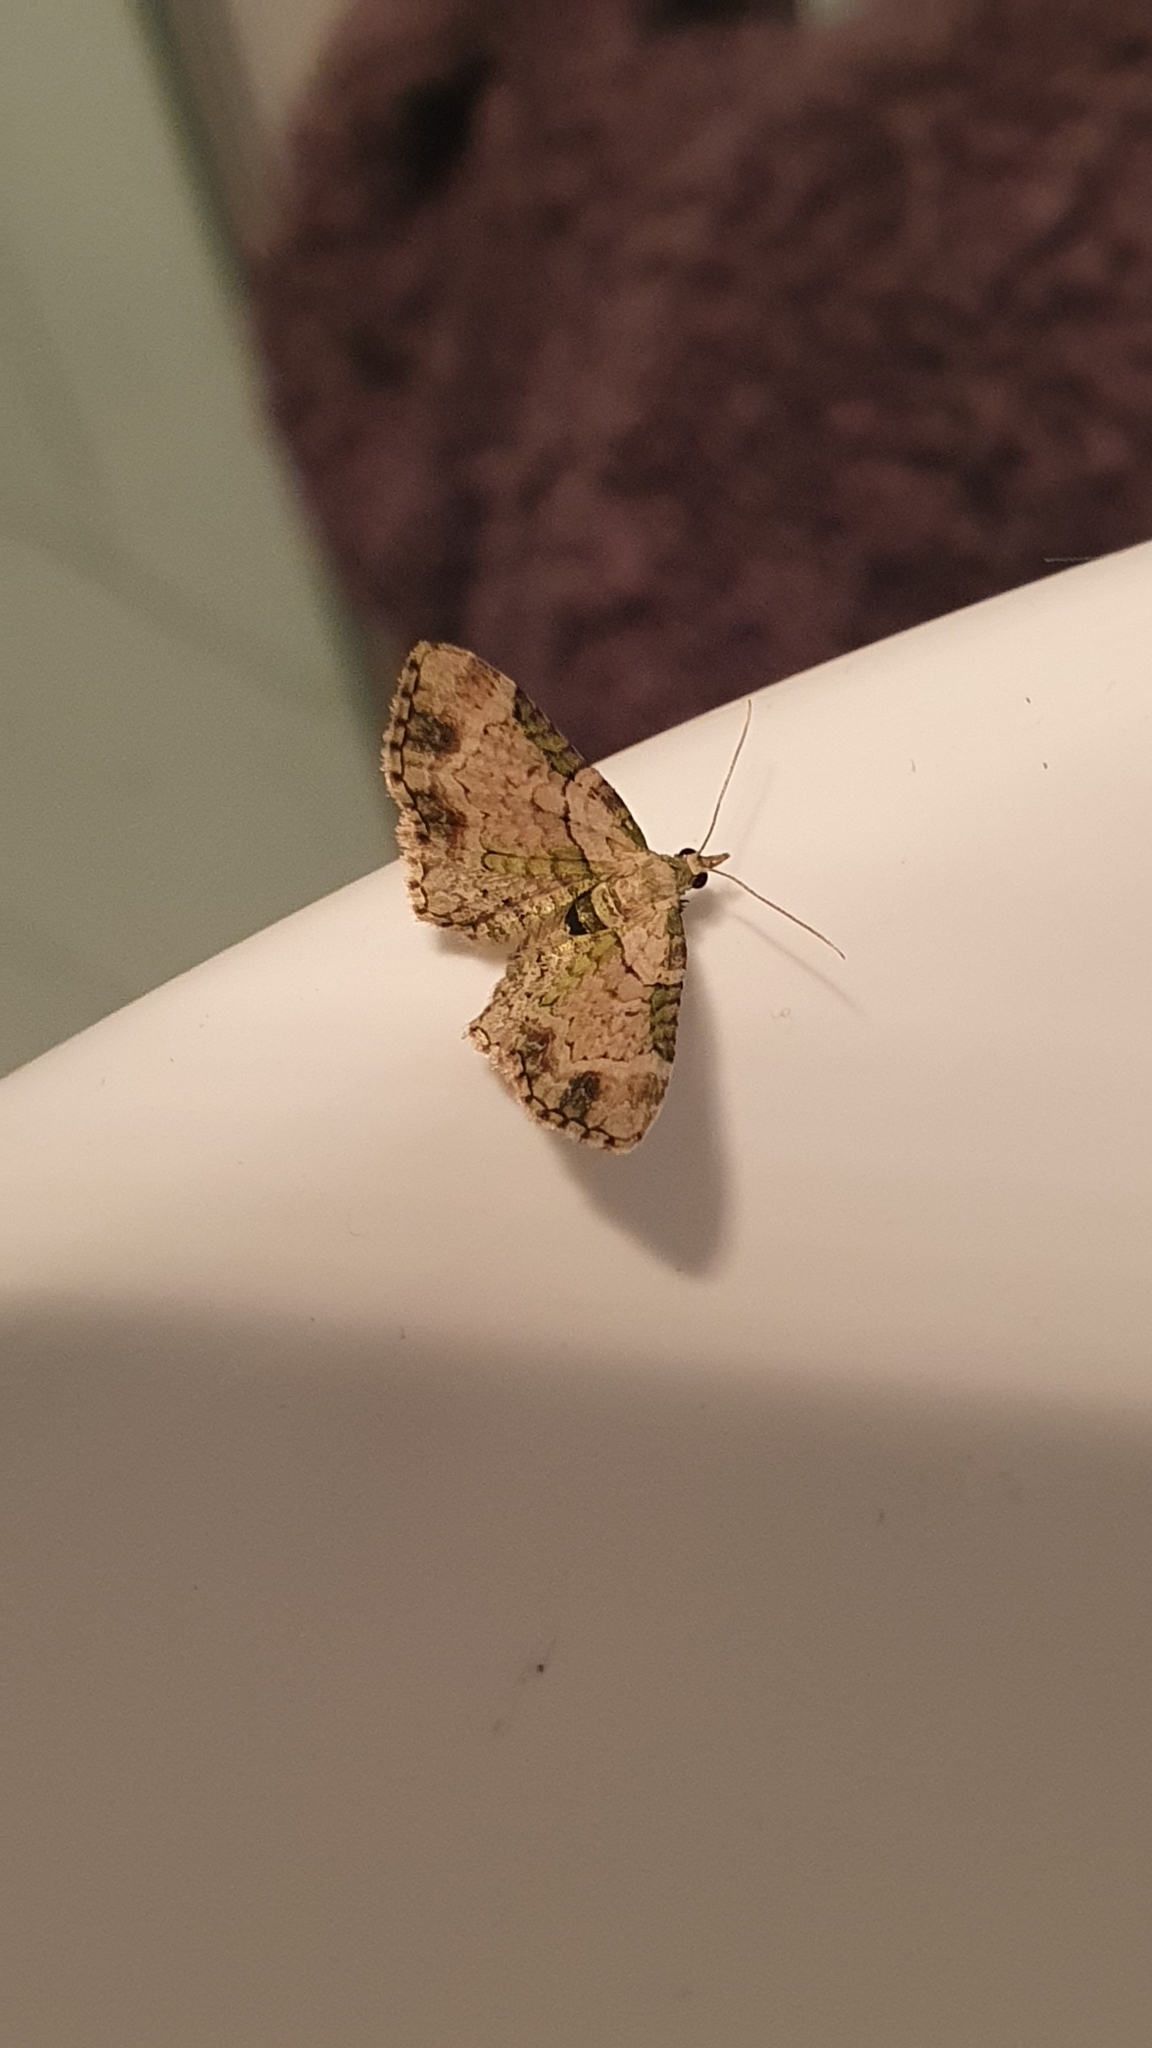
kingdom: Animalia
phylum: Arthropoda
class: Insecta
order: Lepidoptera
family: Geometridae
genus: Chloroclystis
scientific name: Chloroclystis
